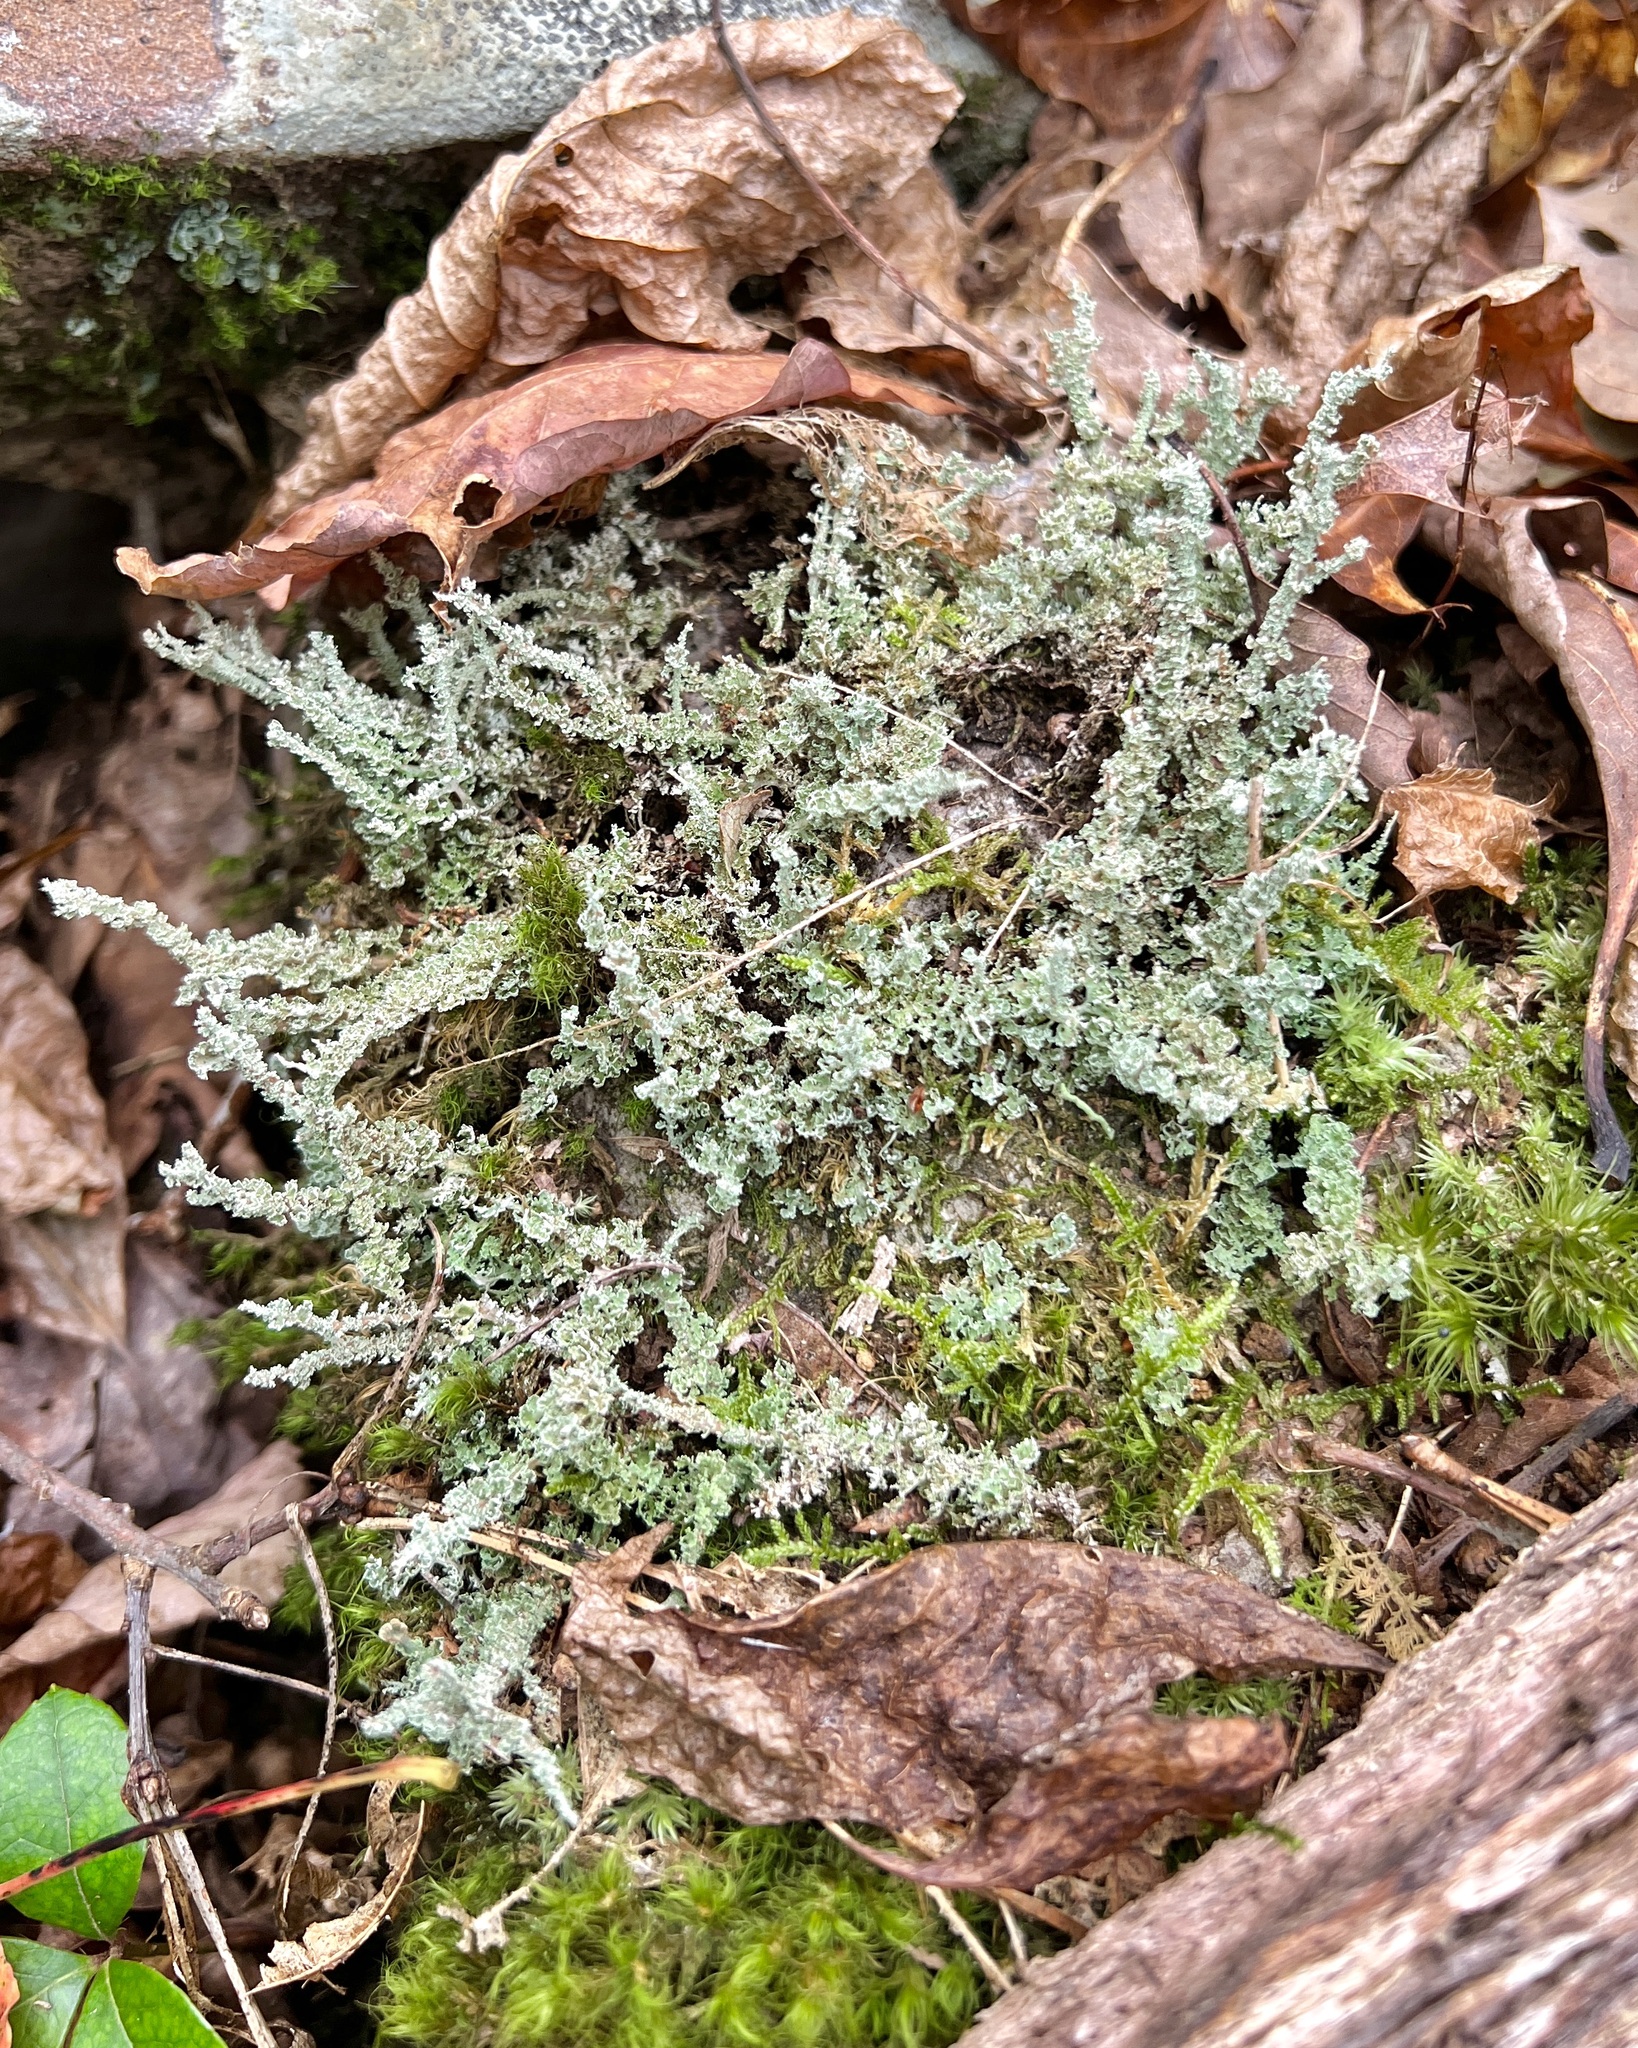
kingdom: Fungi
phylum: Ascomycota
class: Lecanoromycetes
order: Lecanorales
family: Cladoniaceae
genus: Cladonia
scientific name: Cladonia squamosa
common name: Dragon horn
